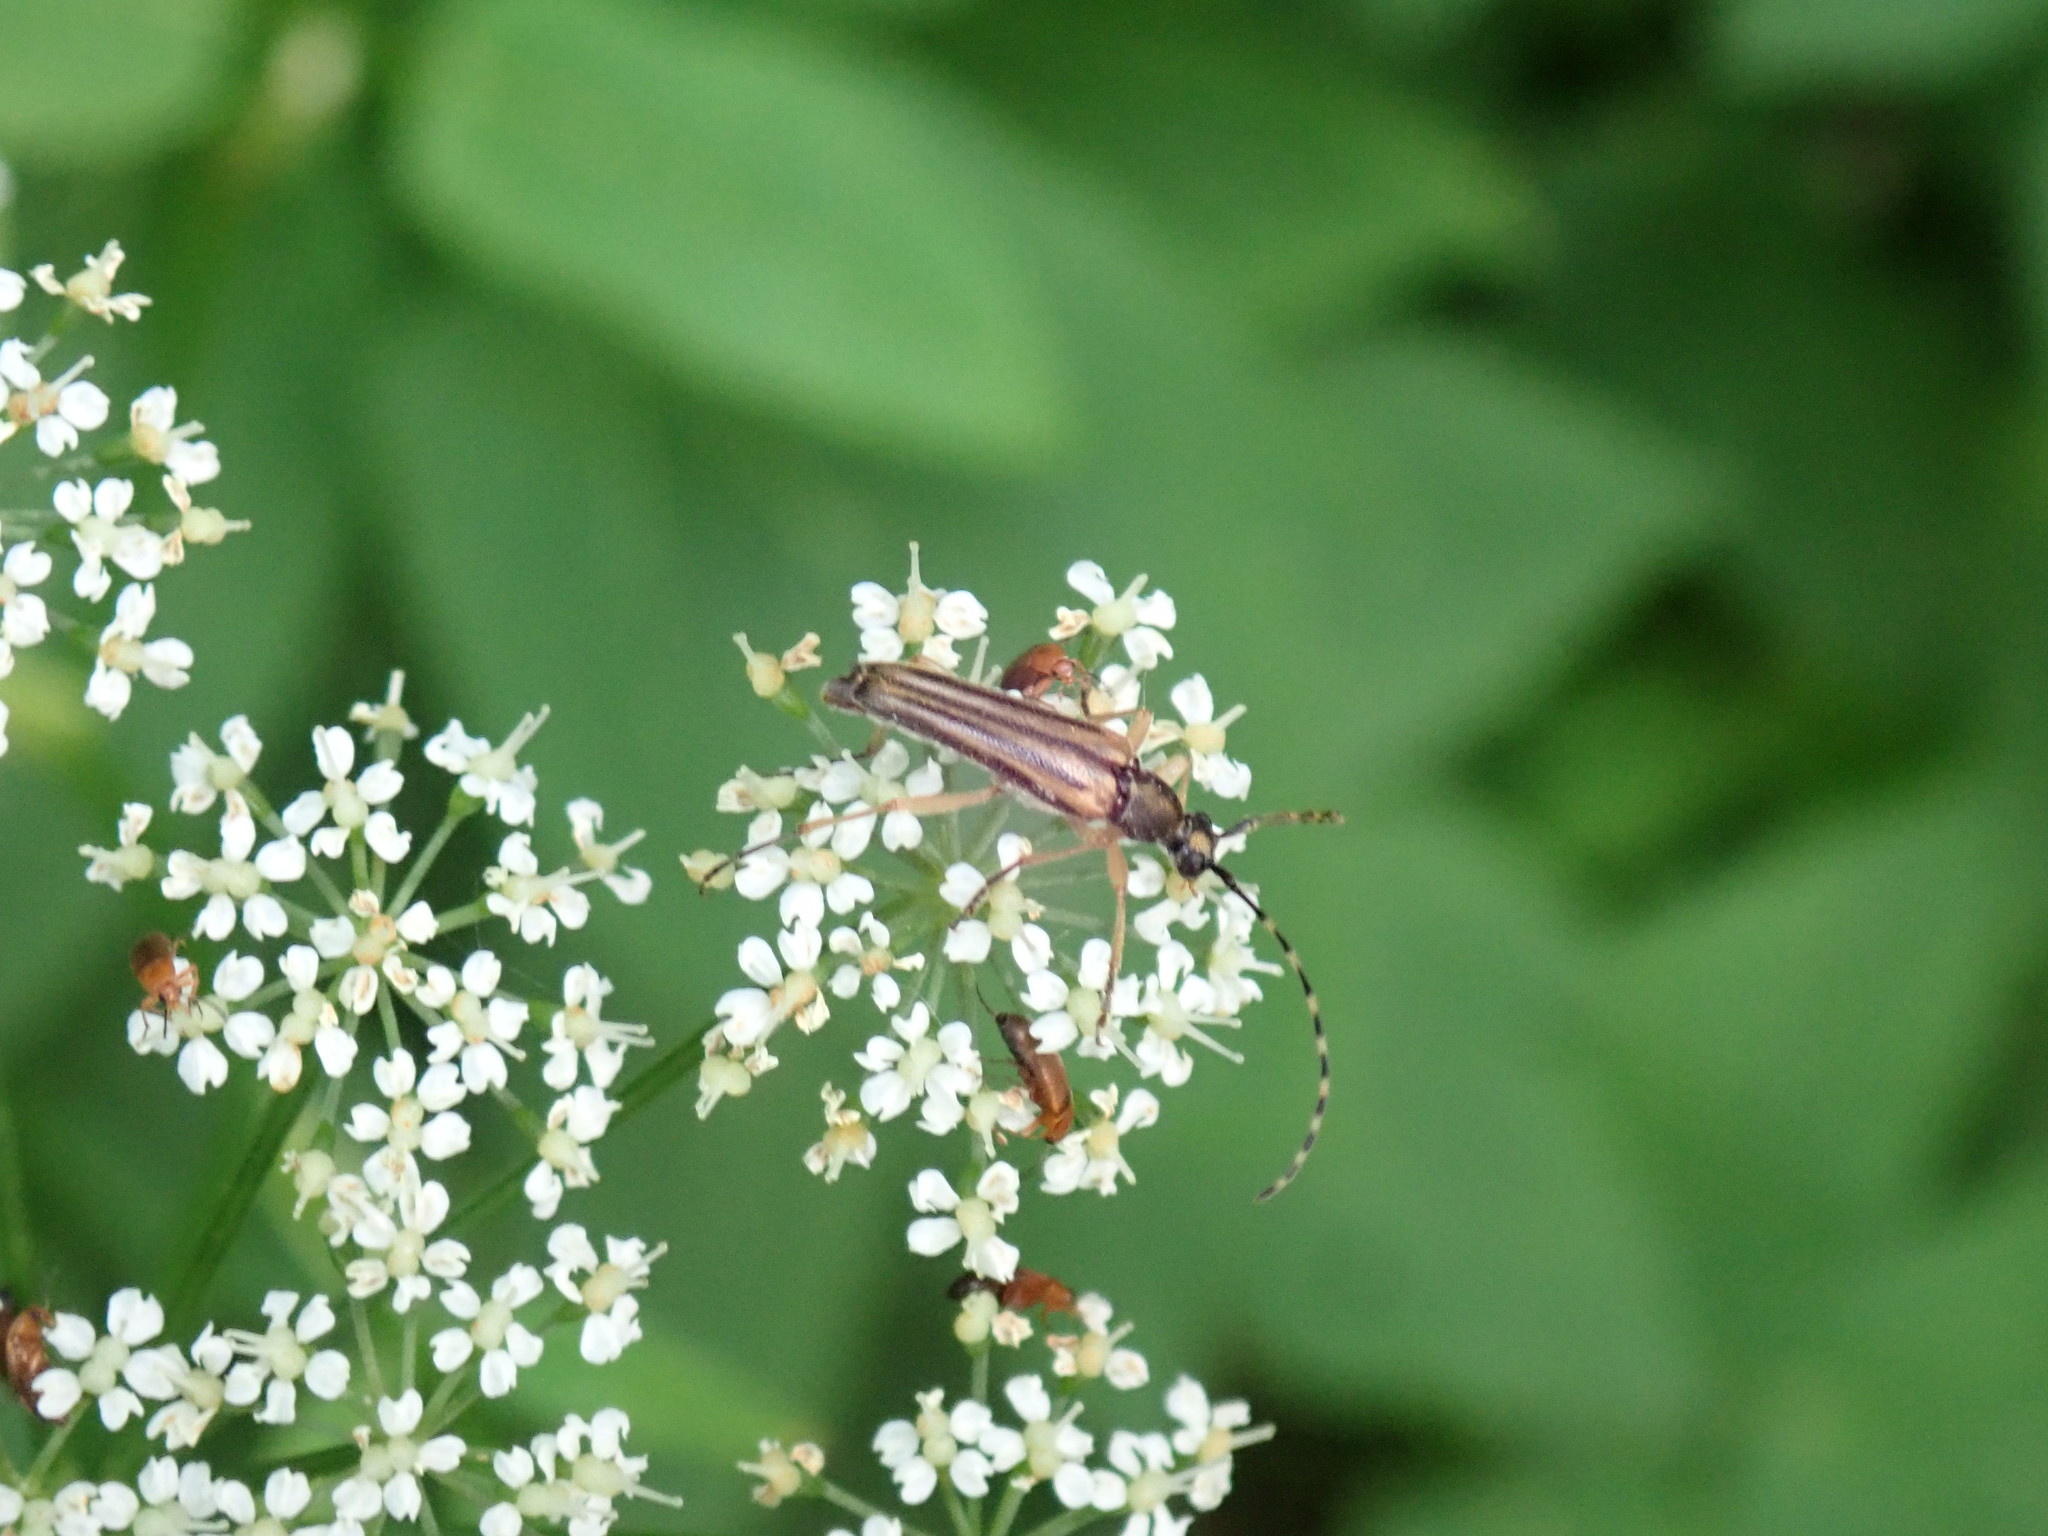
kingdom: Animalia
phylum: Arthropoda
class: Insecta
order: Coleoptera
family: Cerambycidae
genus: Analeptura
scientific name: Analeptura lineola
